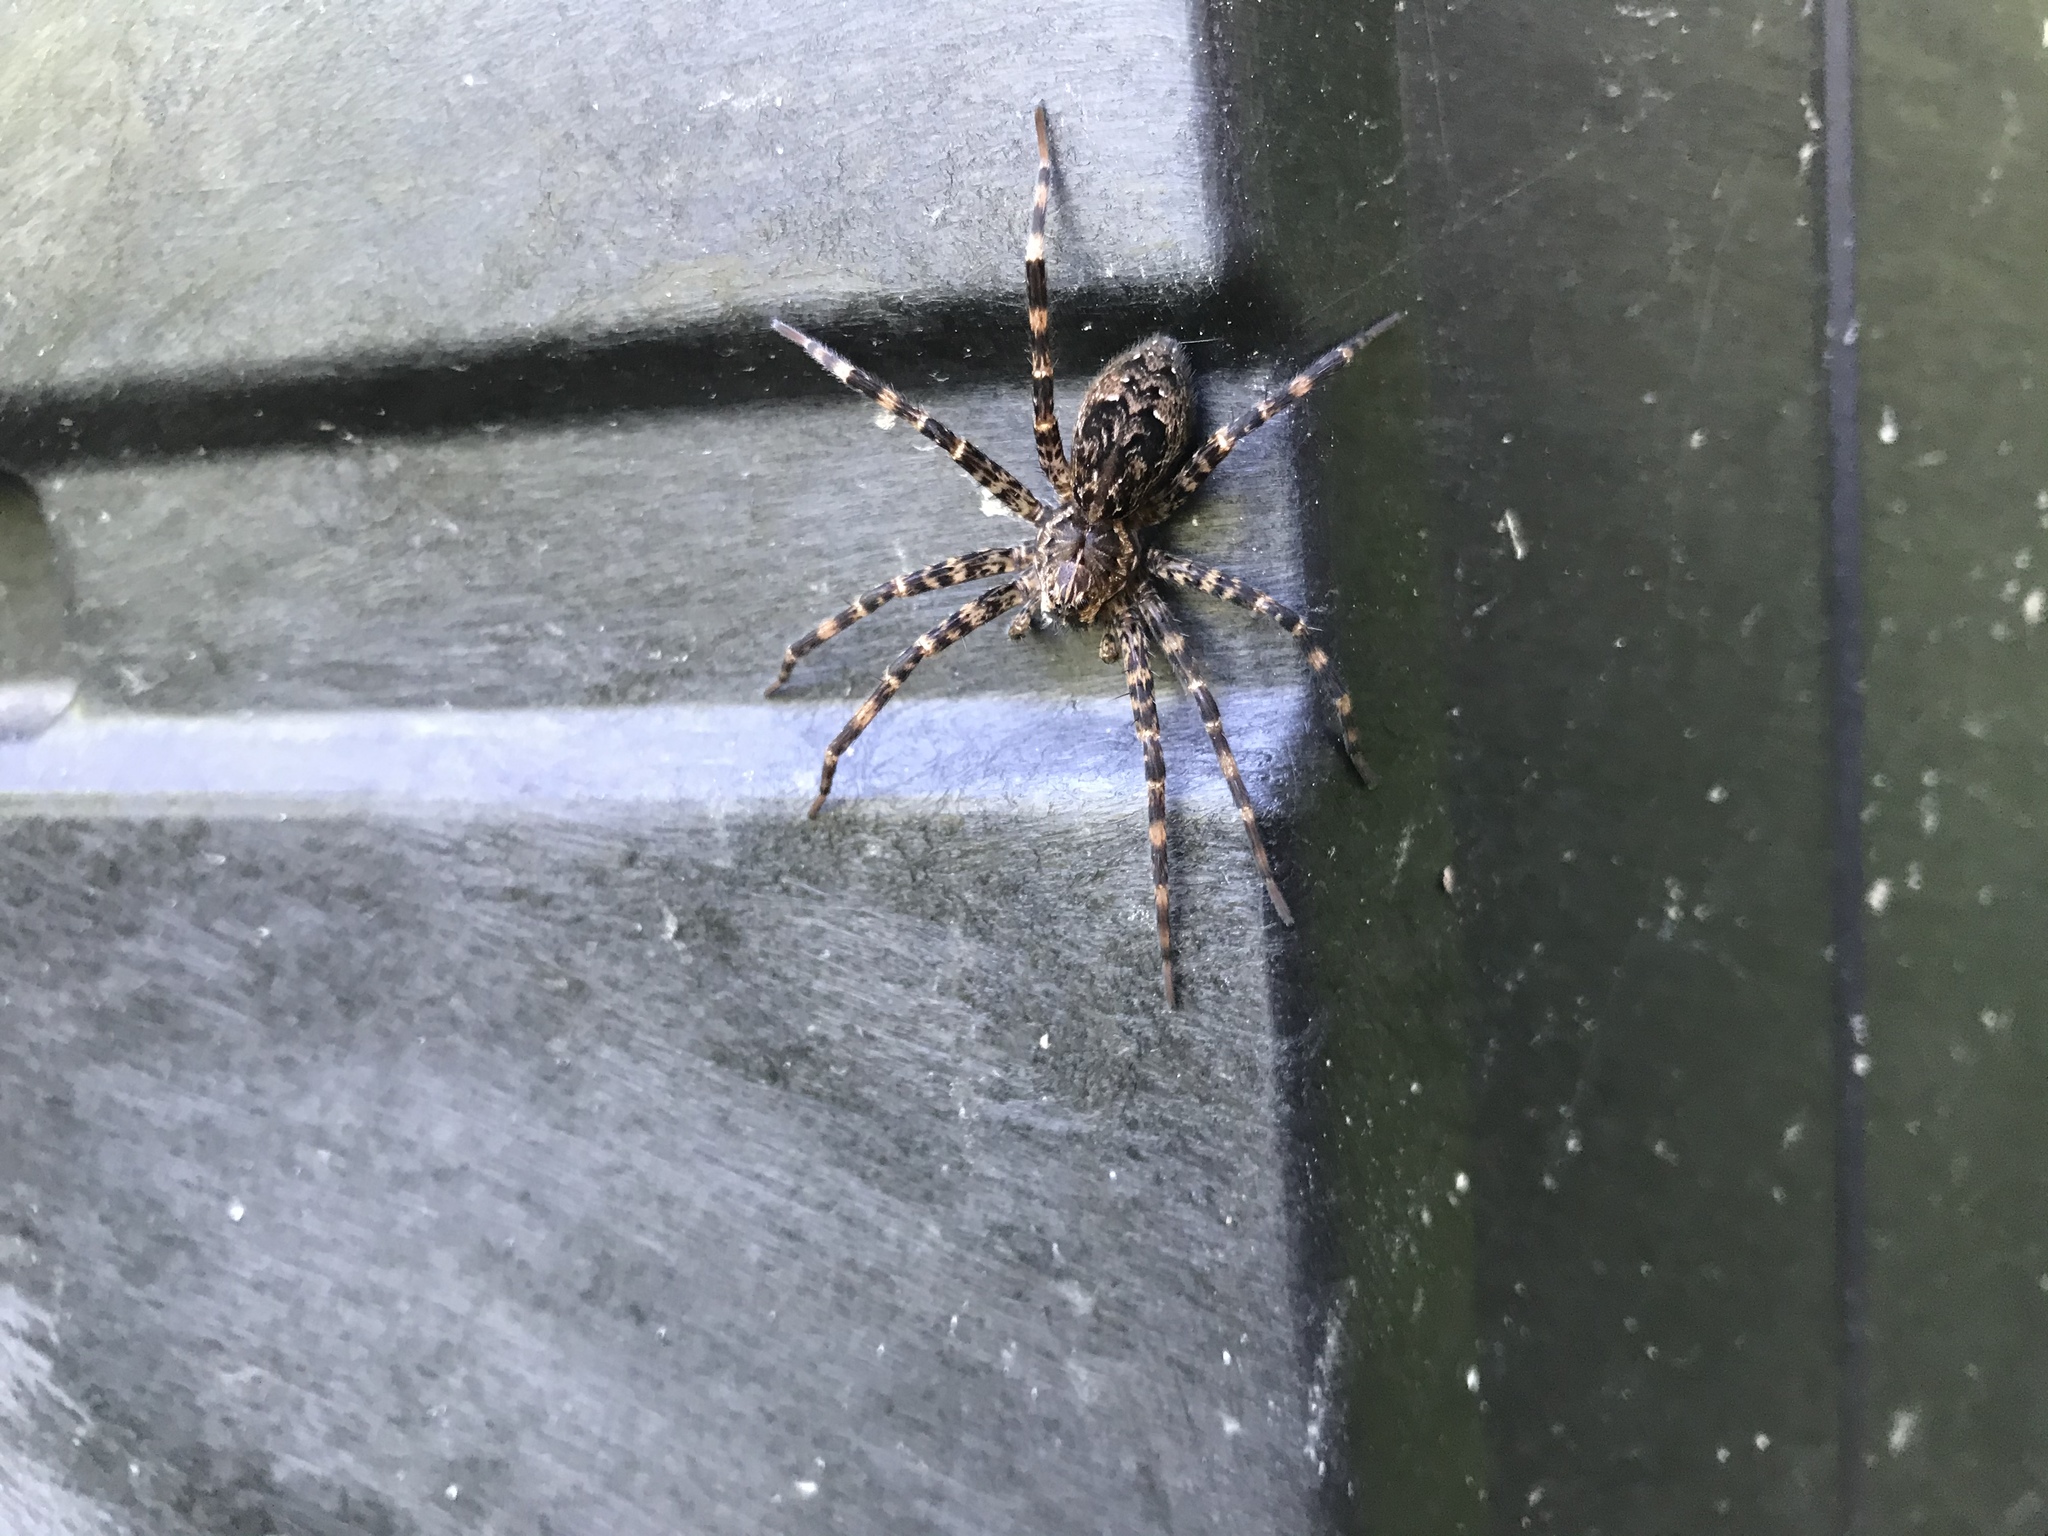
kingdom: Animalia
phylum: Arthropoda
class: Arachnida
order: Araneae
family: Pisauridae
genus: Dolomedes
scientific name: Dolomedes tenebrosus
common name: Dark fishing spider
